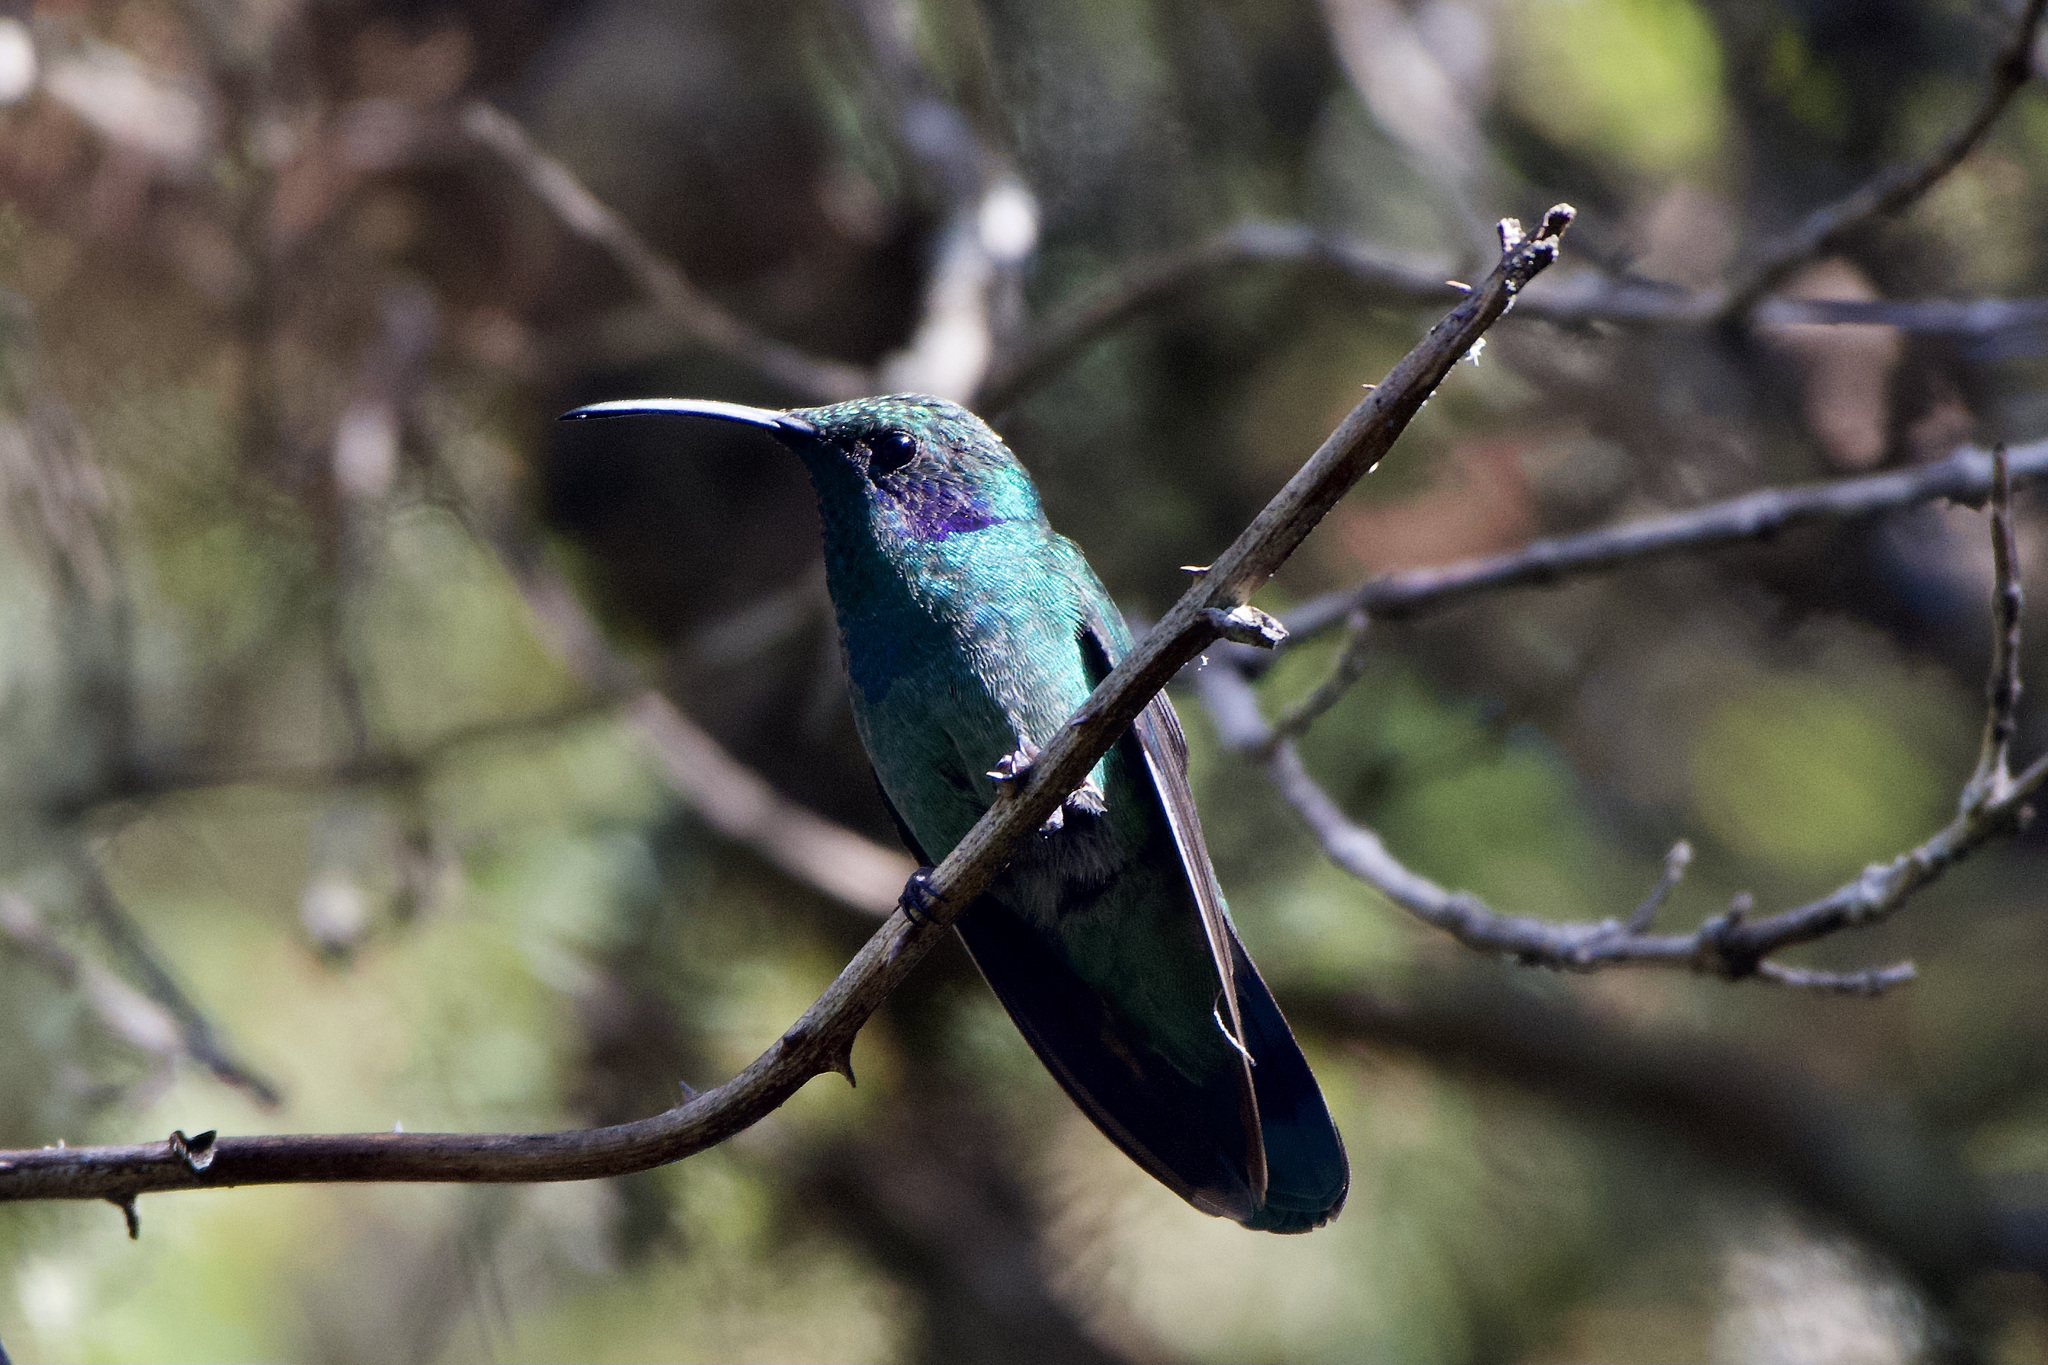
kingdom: Animalia
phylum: Chordata
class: Aves
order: Apodiformes
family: Trochilidae
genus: Colibri
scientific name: Colibri cyanotus
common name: Lesser violetear
